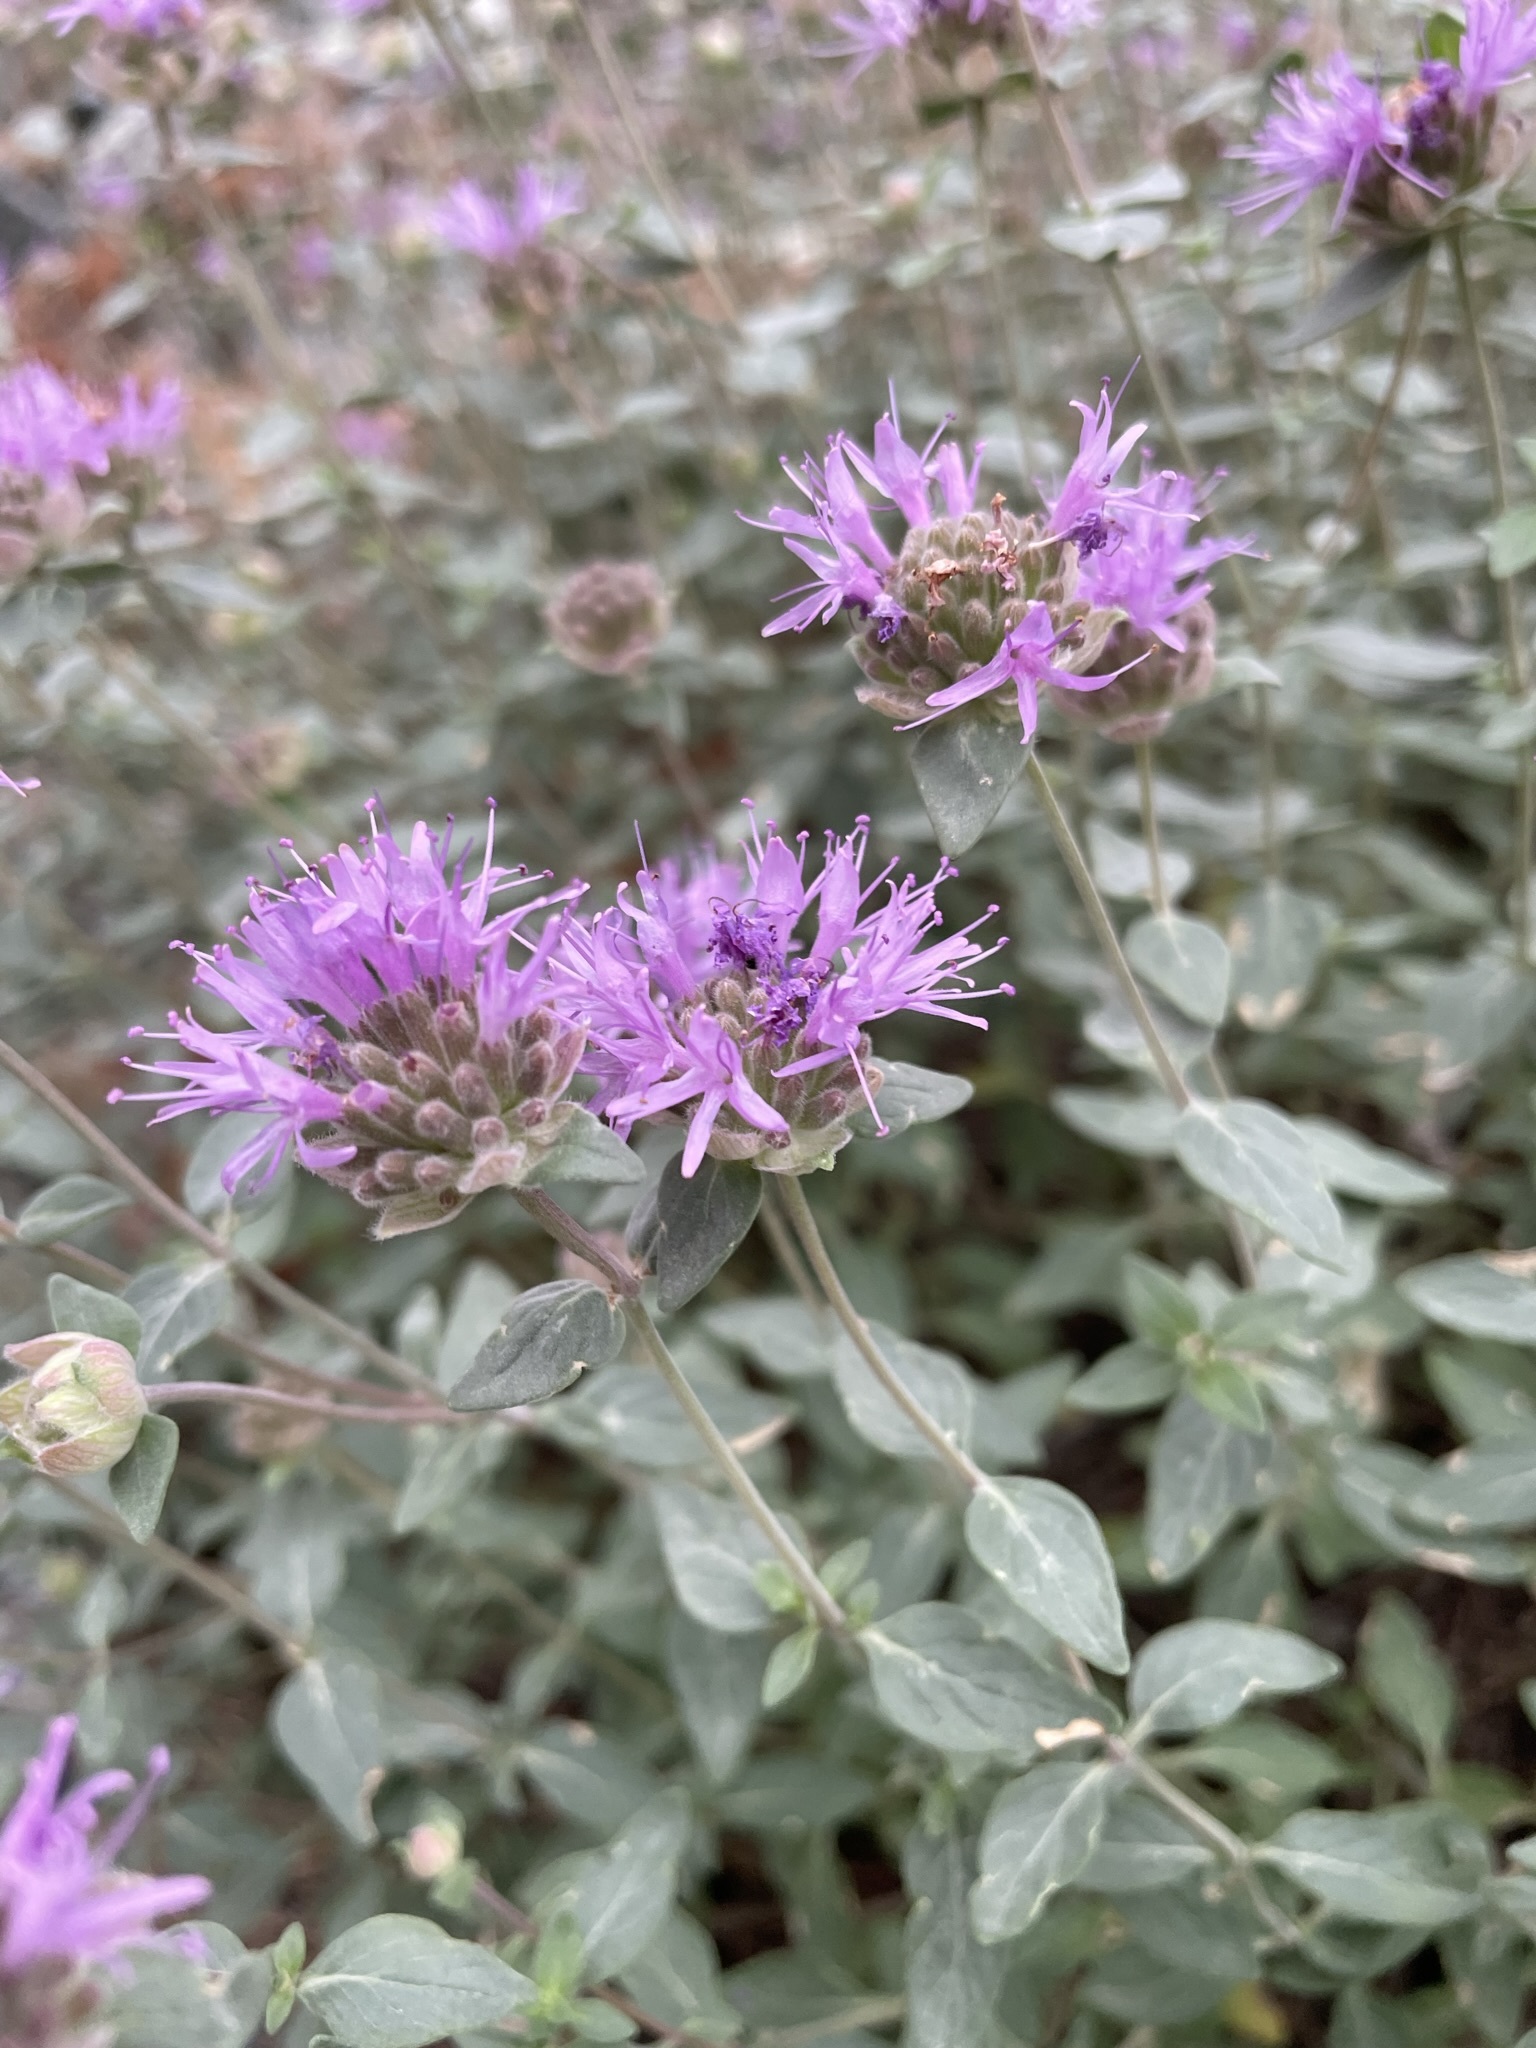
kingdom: Plantae
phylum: Tracheophyta
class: Magnoliopsida
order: Lamiales
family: Lamiaceae
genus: Monardella
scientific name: Monardella odoratissima
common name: Pacific monardella
